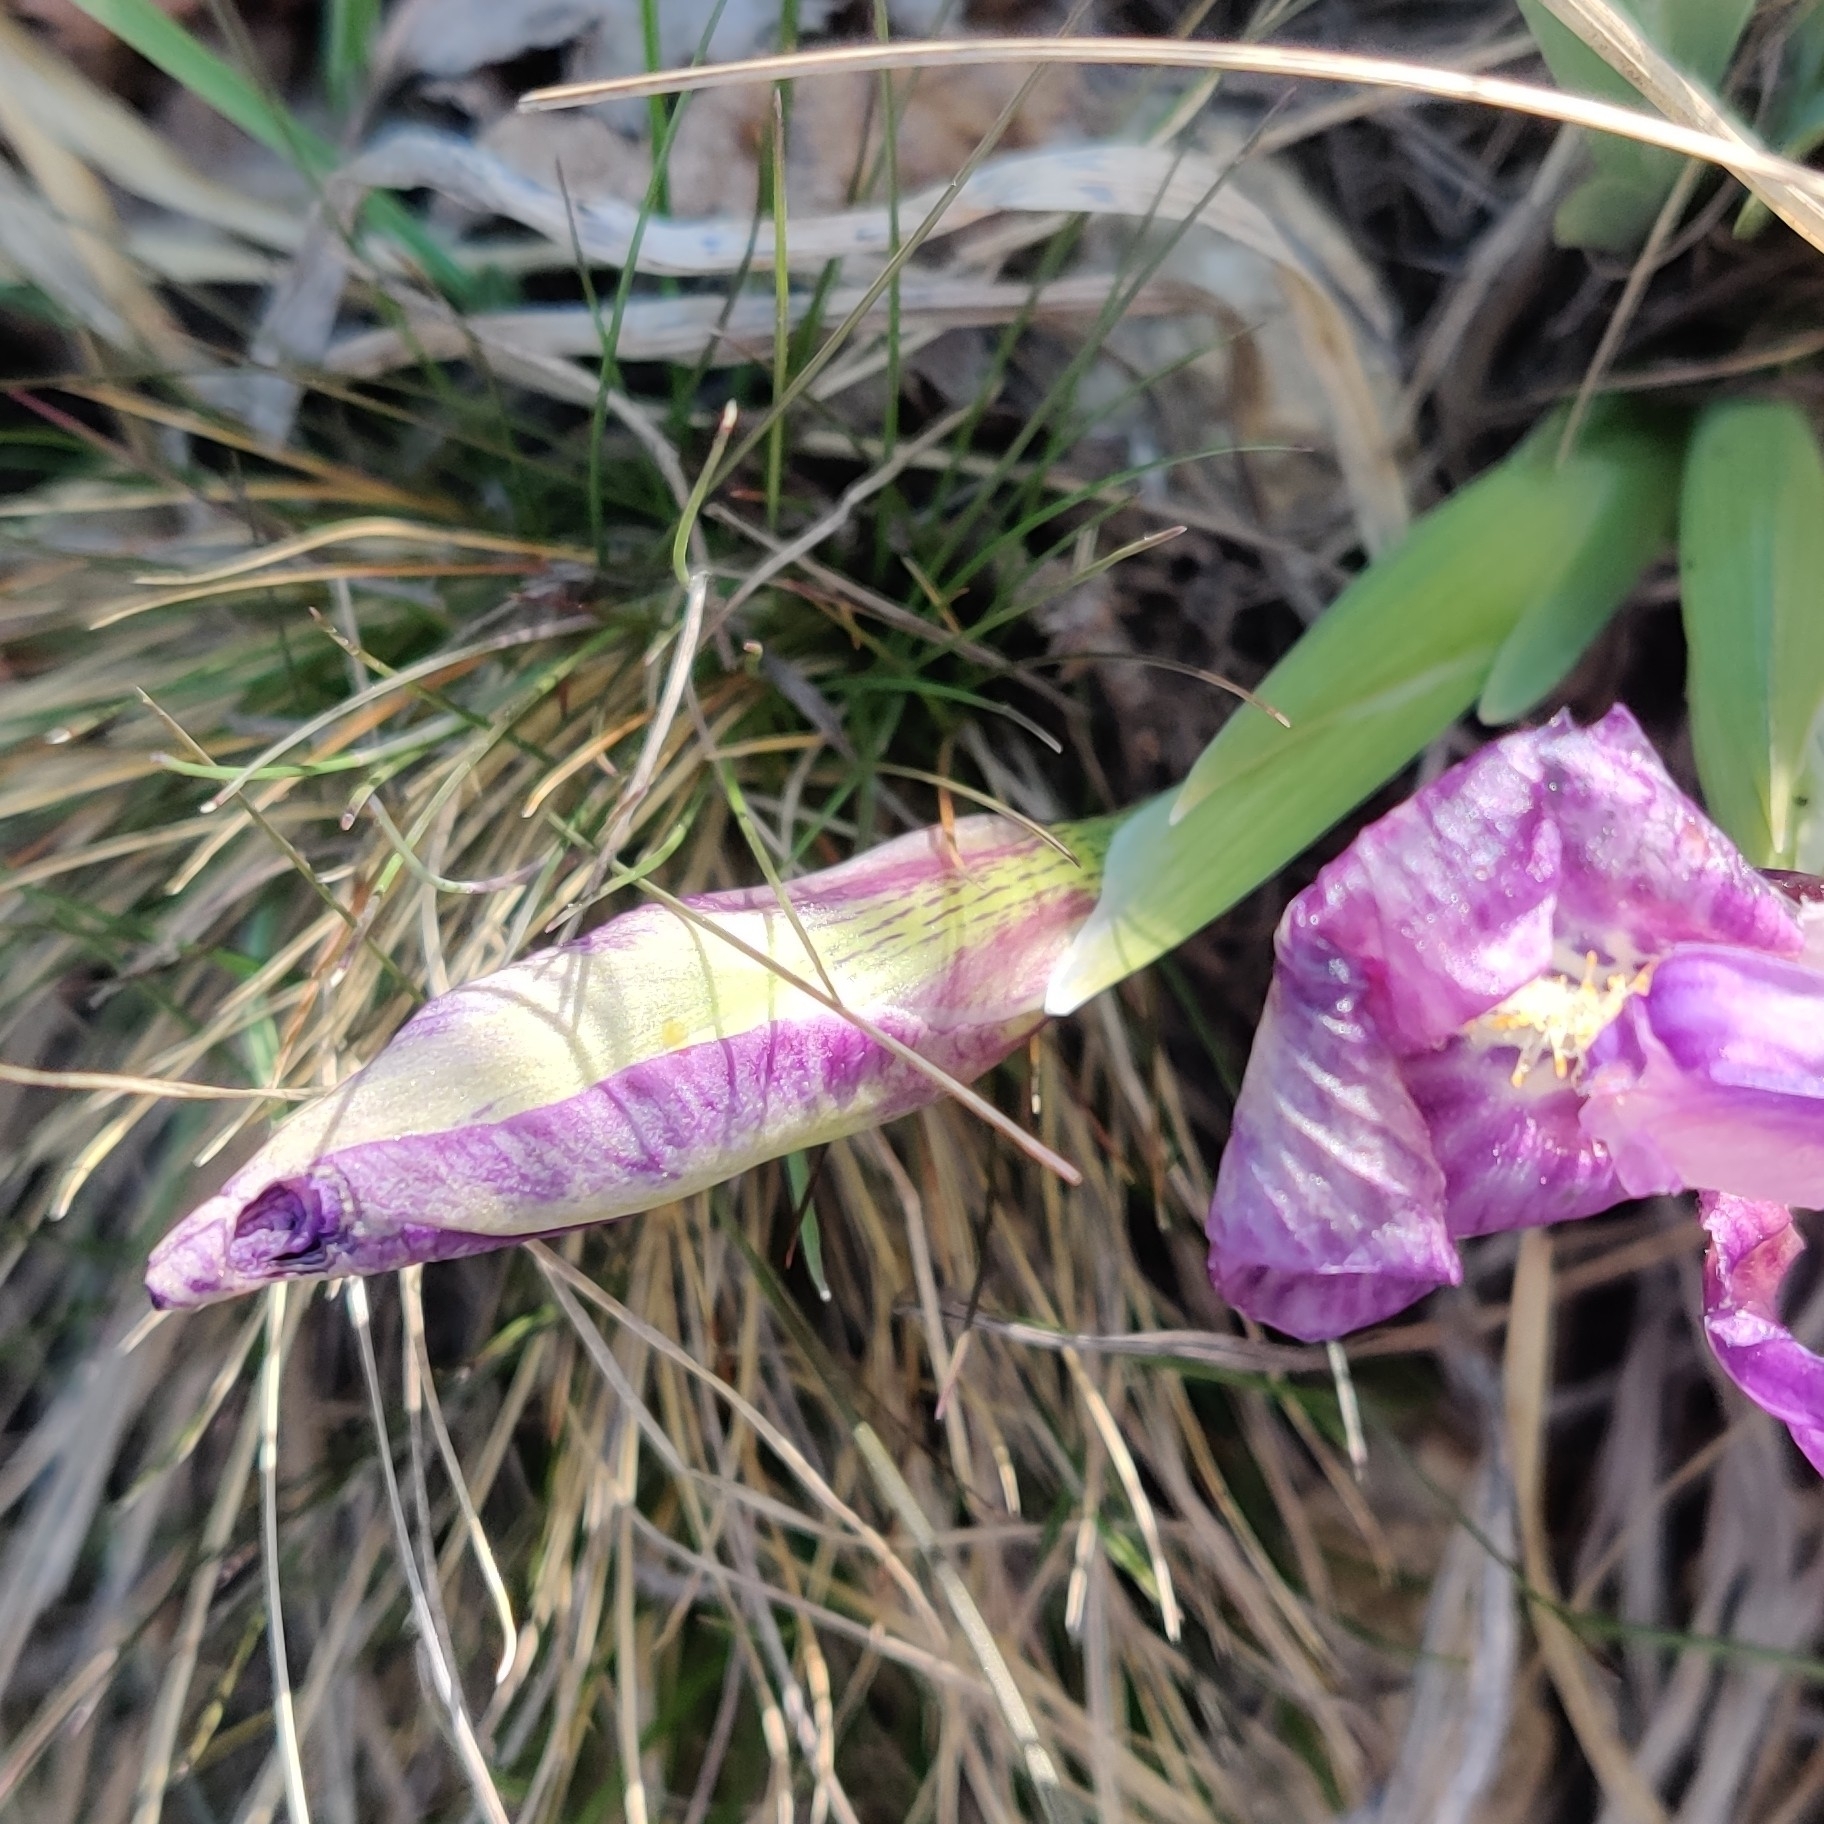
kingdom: Plantae
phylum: Tracheophyta
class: Liliopsida
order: Asparagales
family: Iridaceae
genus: Iris
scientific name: Iris kemaonensis
